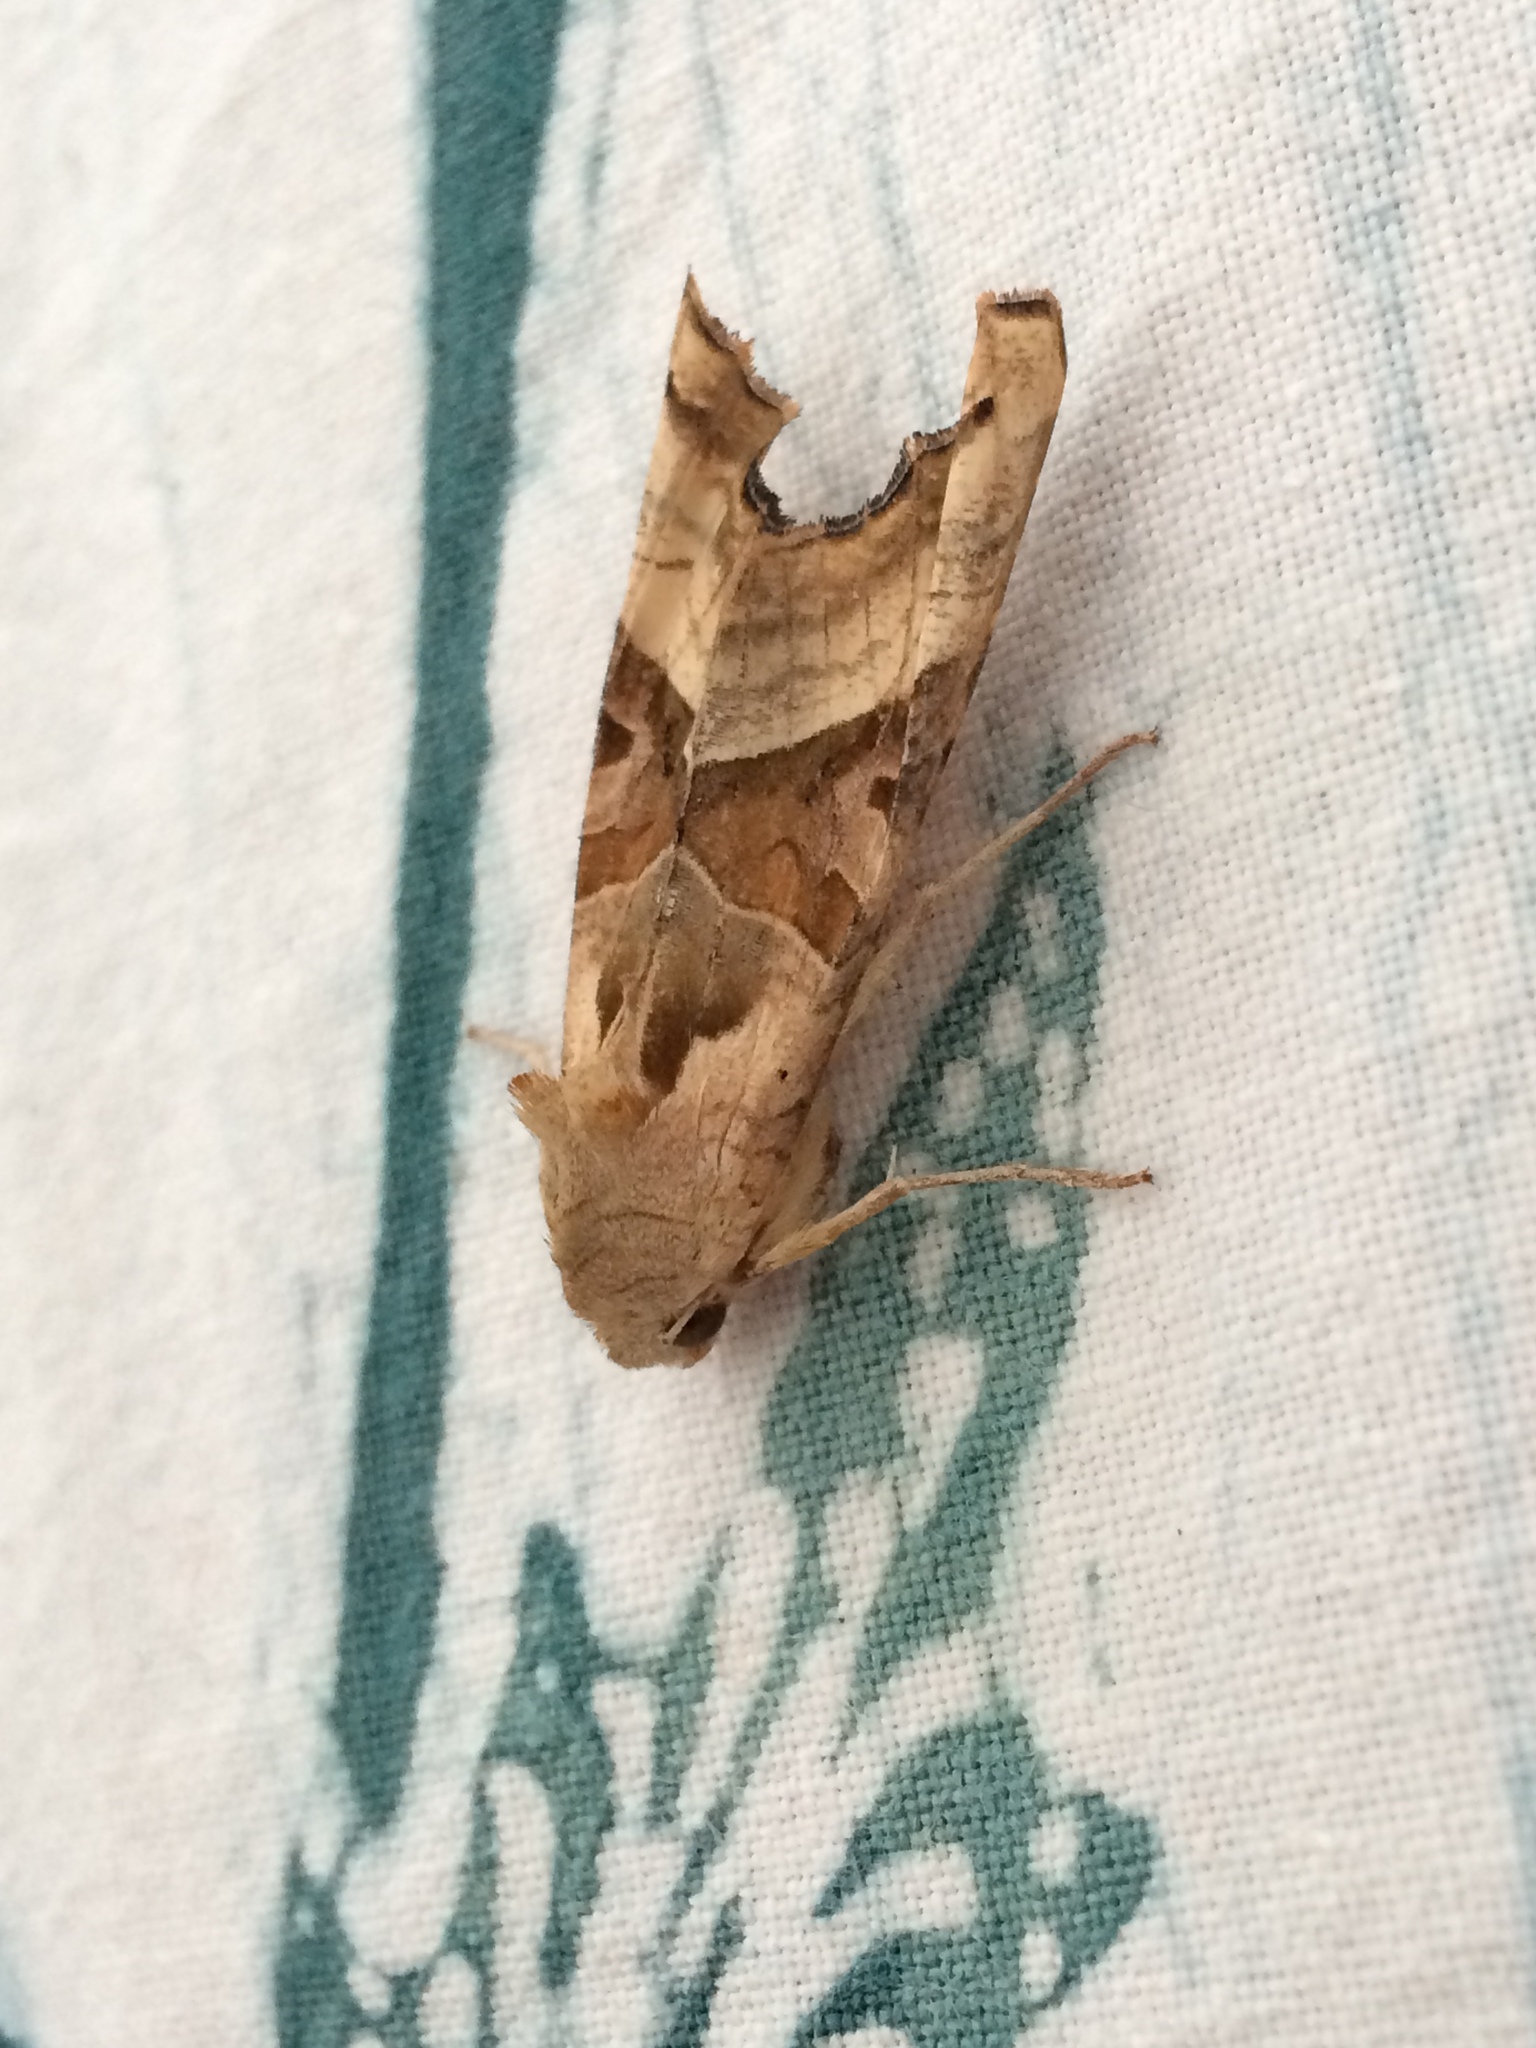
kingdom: Animalia
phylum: Arthropoda
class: Insecta
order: Lepidoptera
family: Noctuidae
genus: Phlogophora
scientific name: Phlogophora meticulosa
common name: Angle shades
